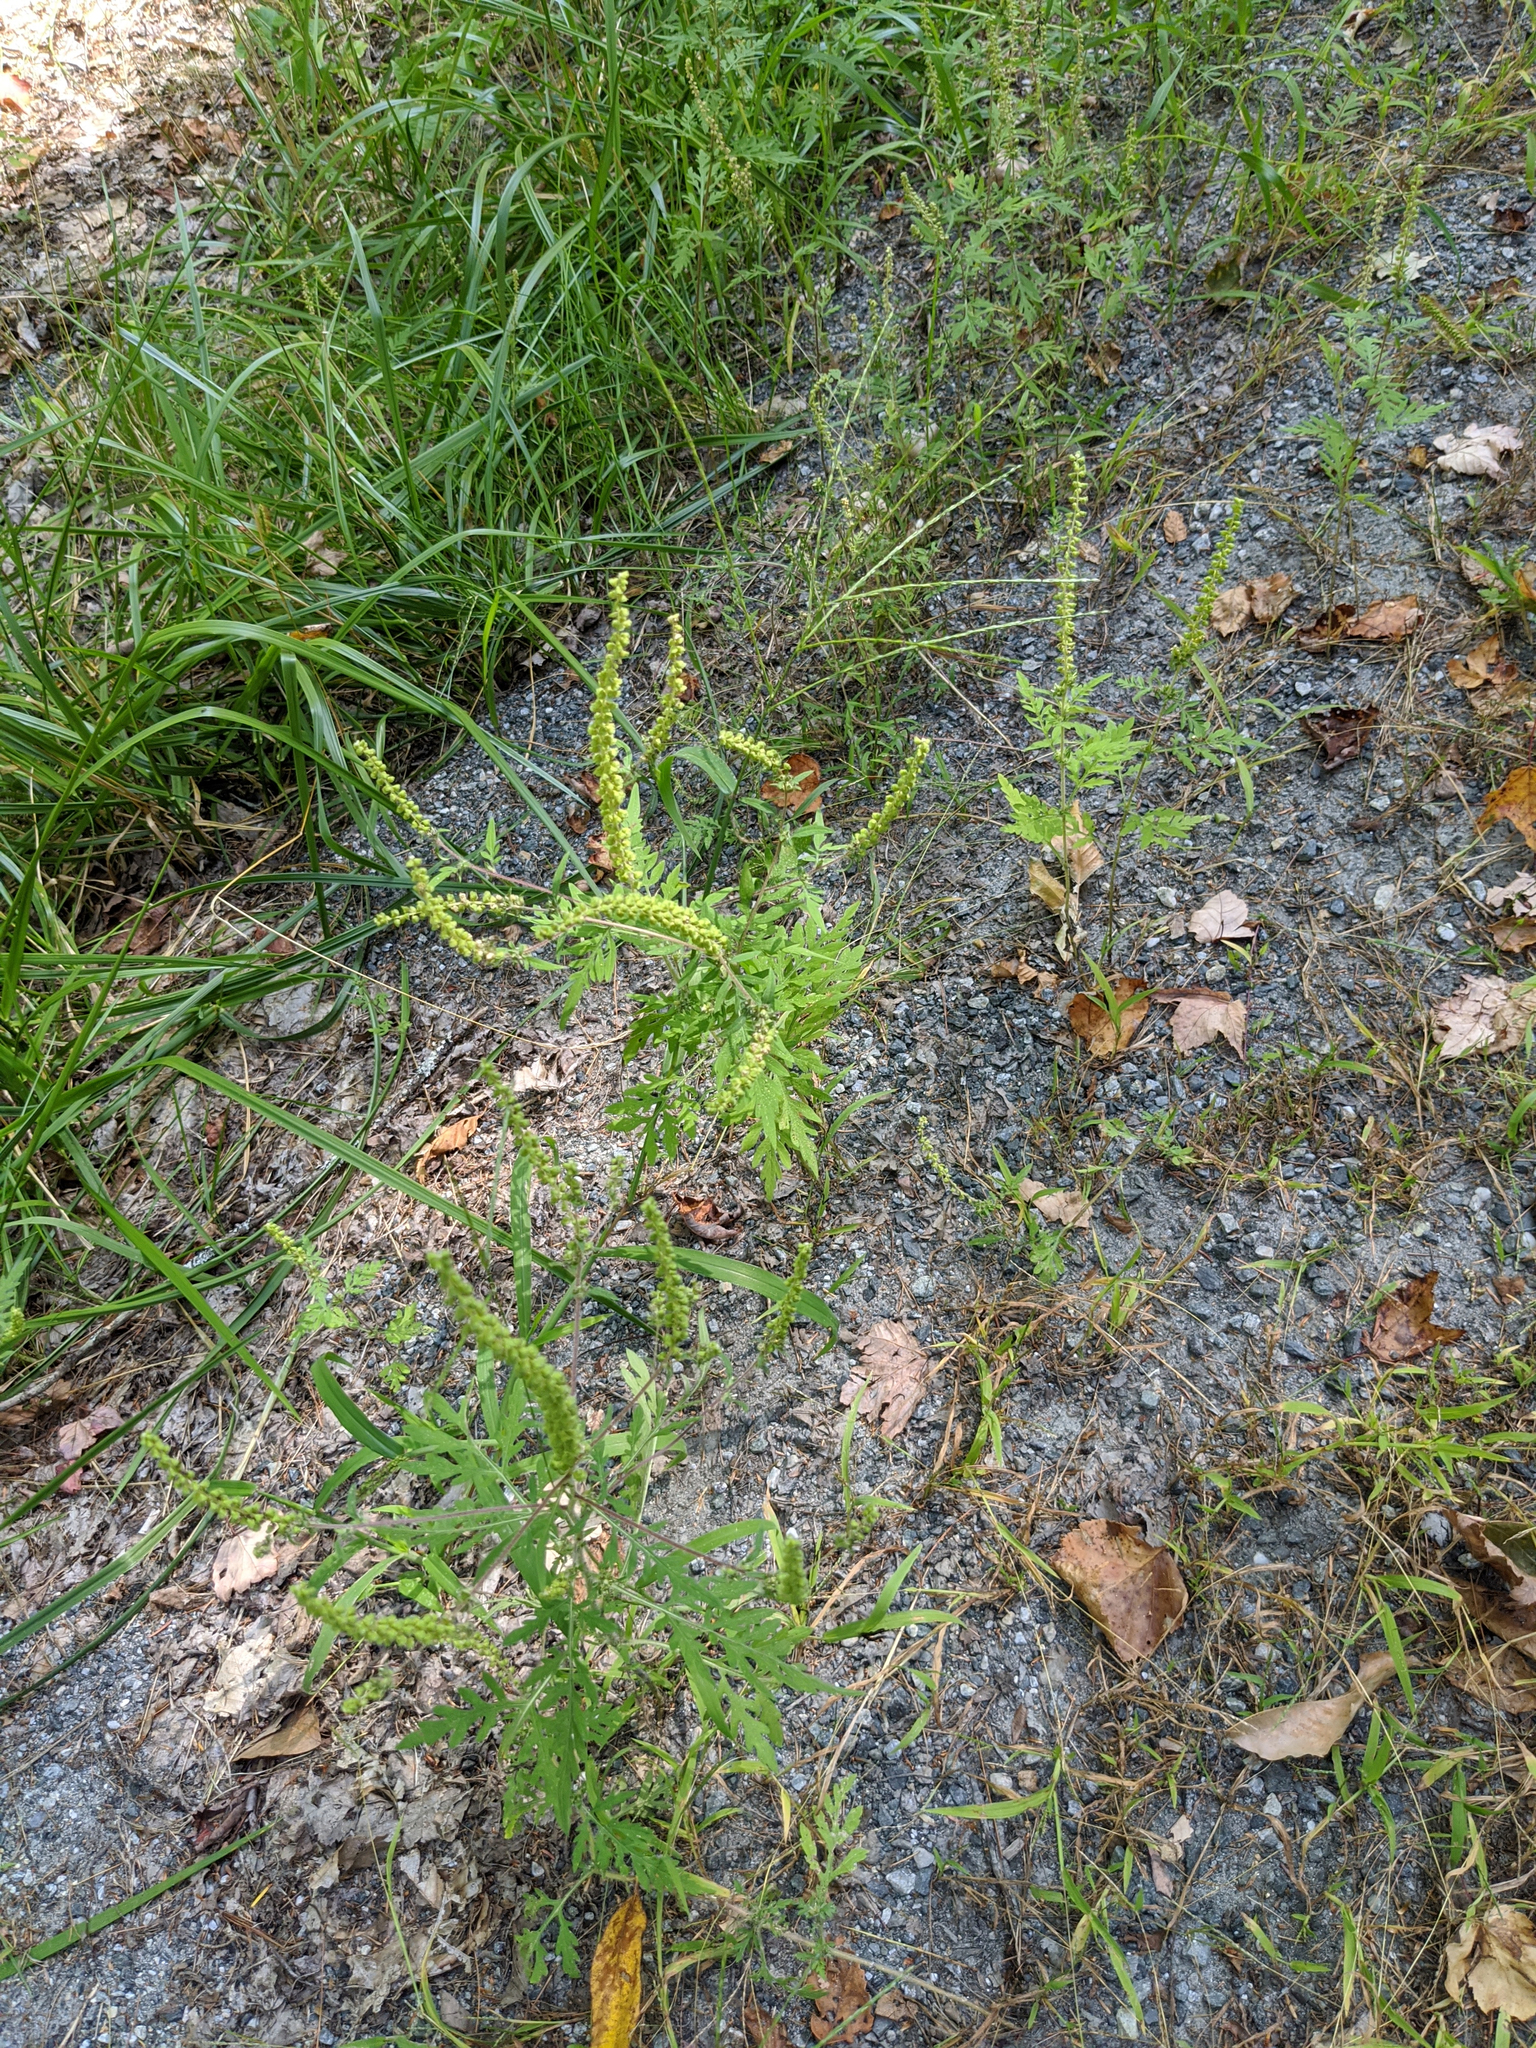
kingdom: Plantae
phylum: Tracheophyta
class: Magnoliopsida
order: Asterales
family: Asteraceae
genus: Ambrosia
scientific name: Ambrosia artemisiifolia
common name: Annual ragweed
